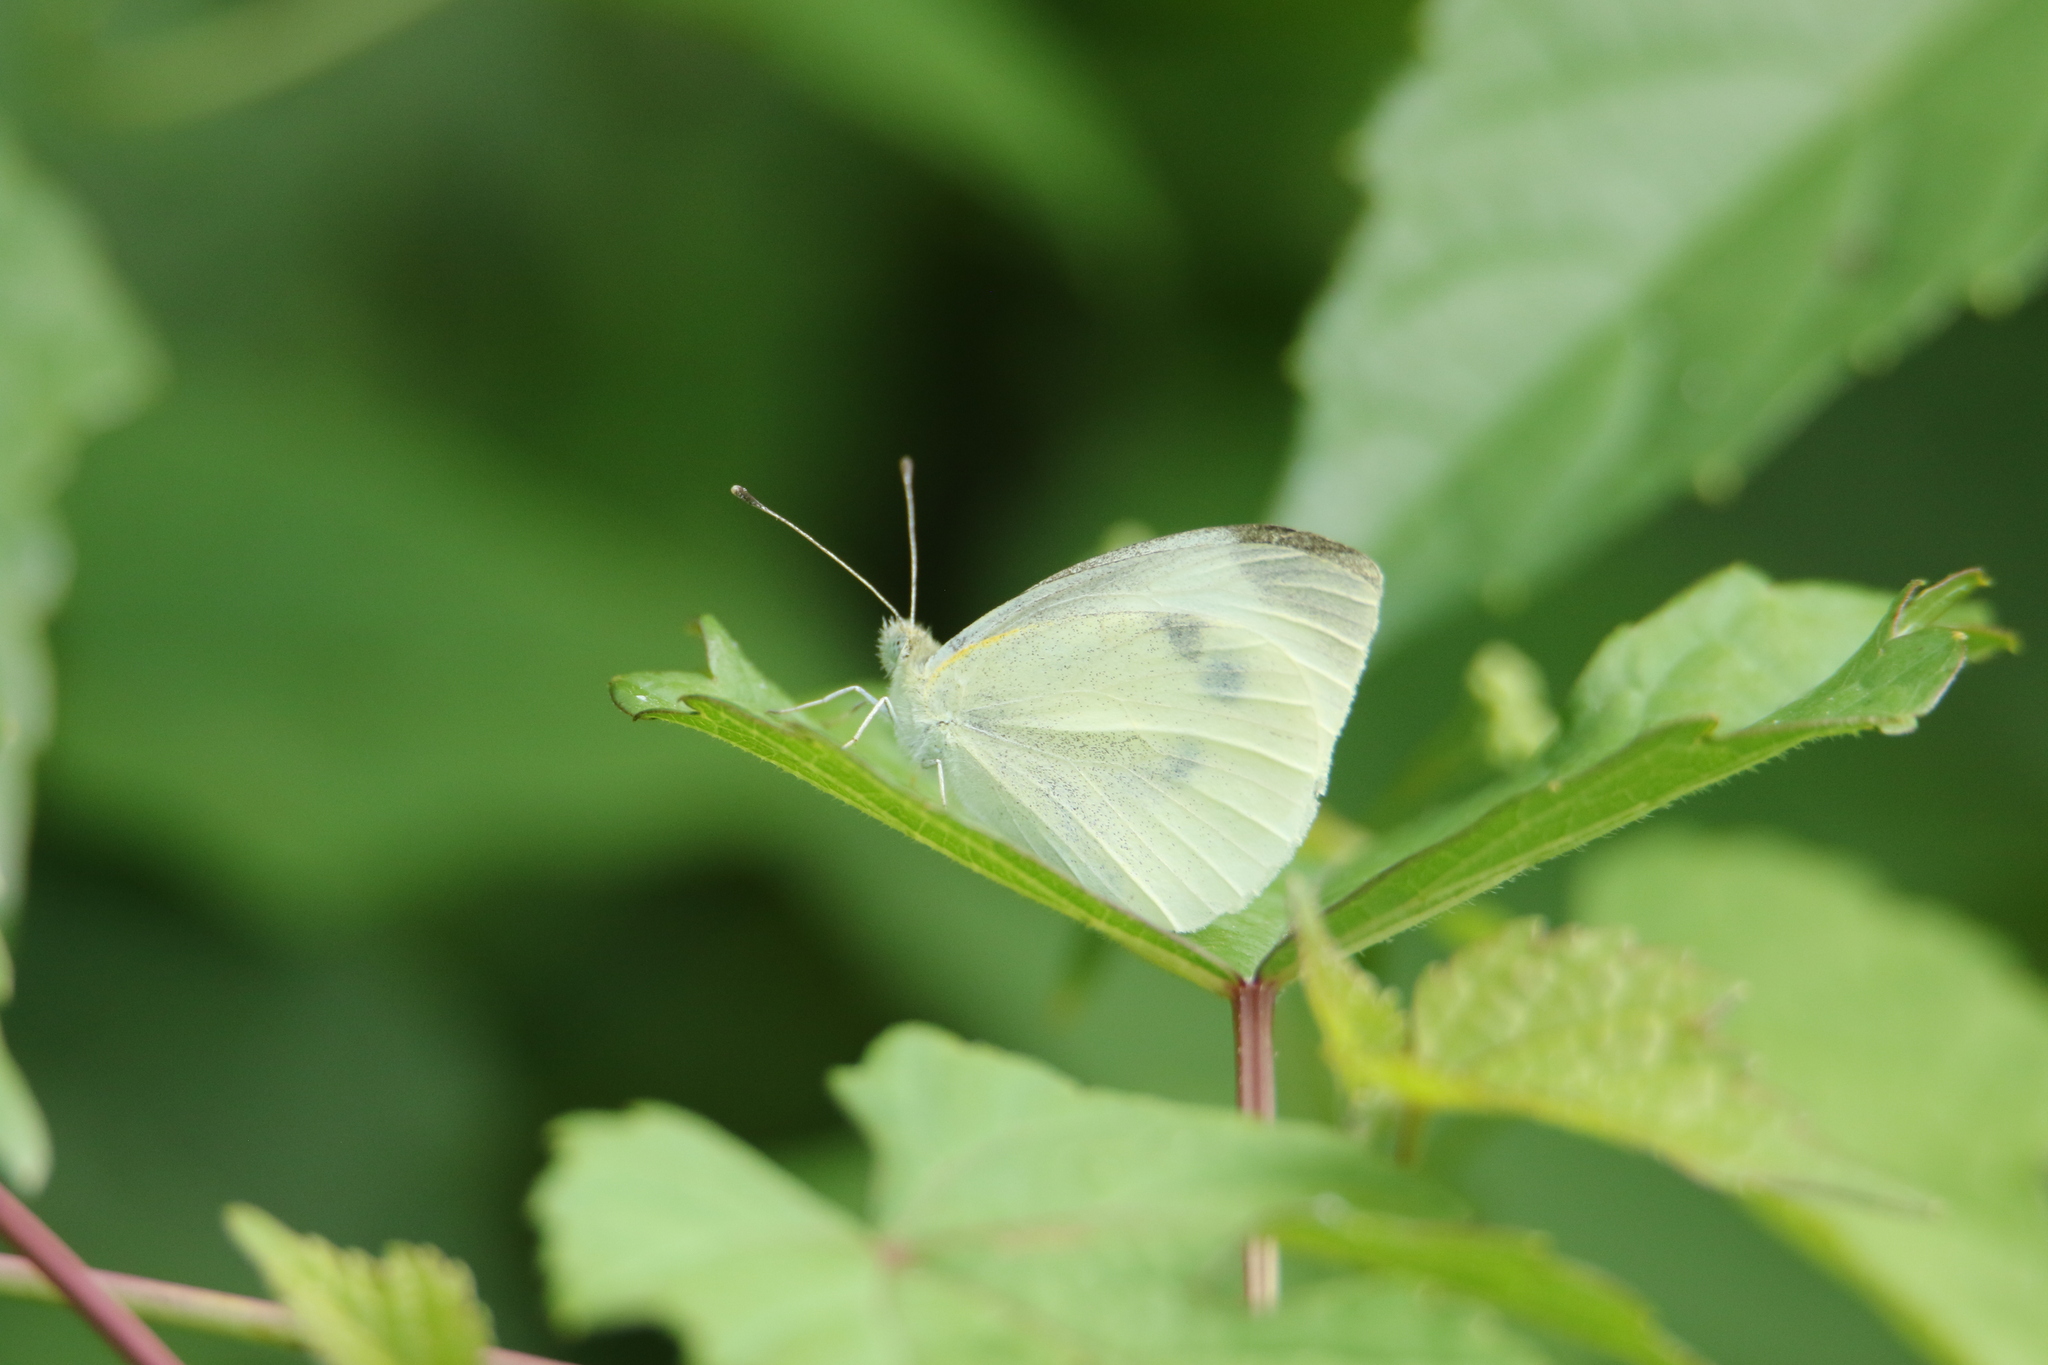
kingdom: Animalia
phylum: Arthropoda
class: Insecta
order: Lepidoptera
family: Pieridae
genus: Pieris
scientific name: Pieris rapae
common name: Small white
